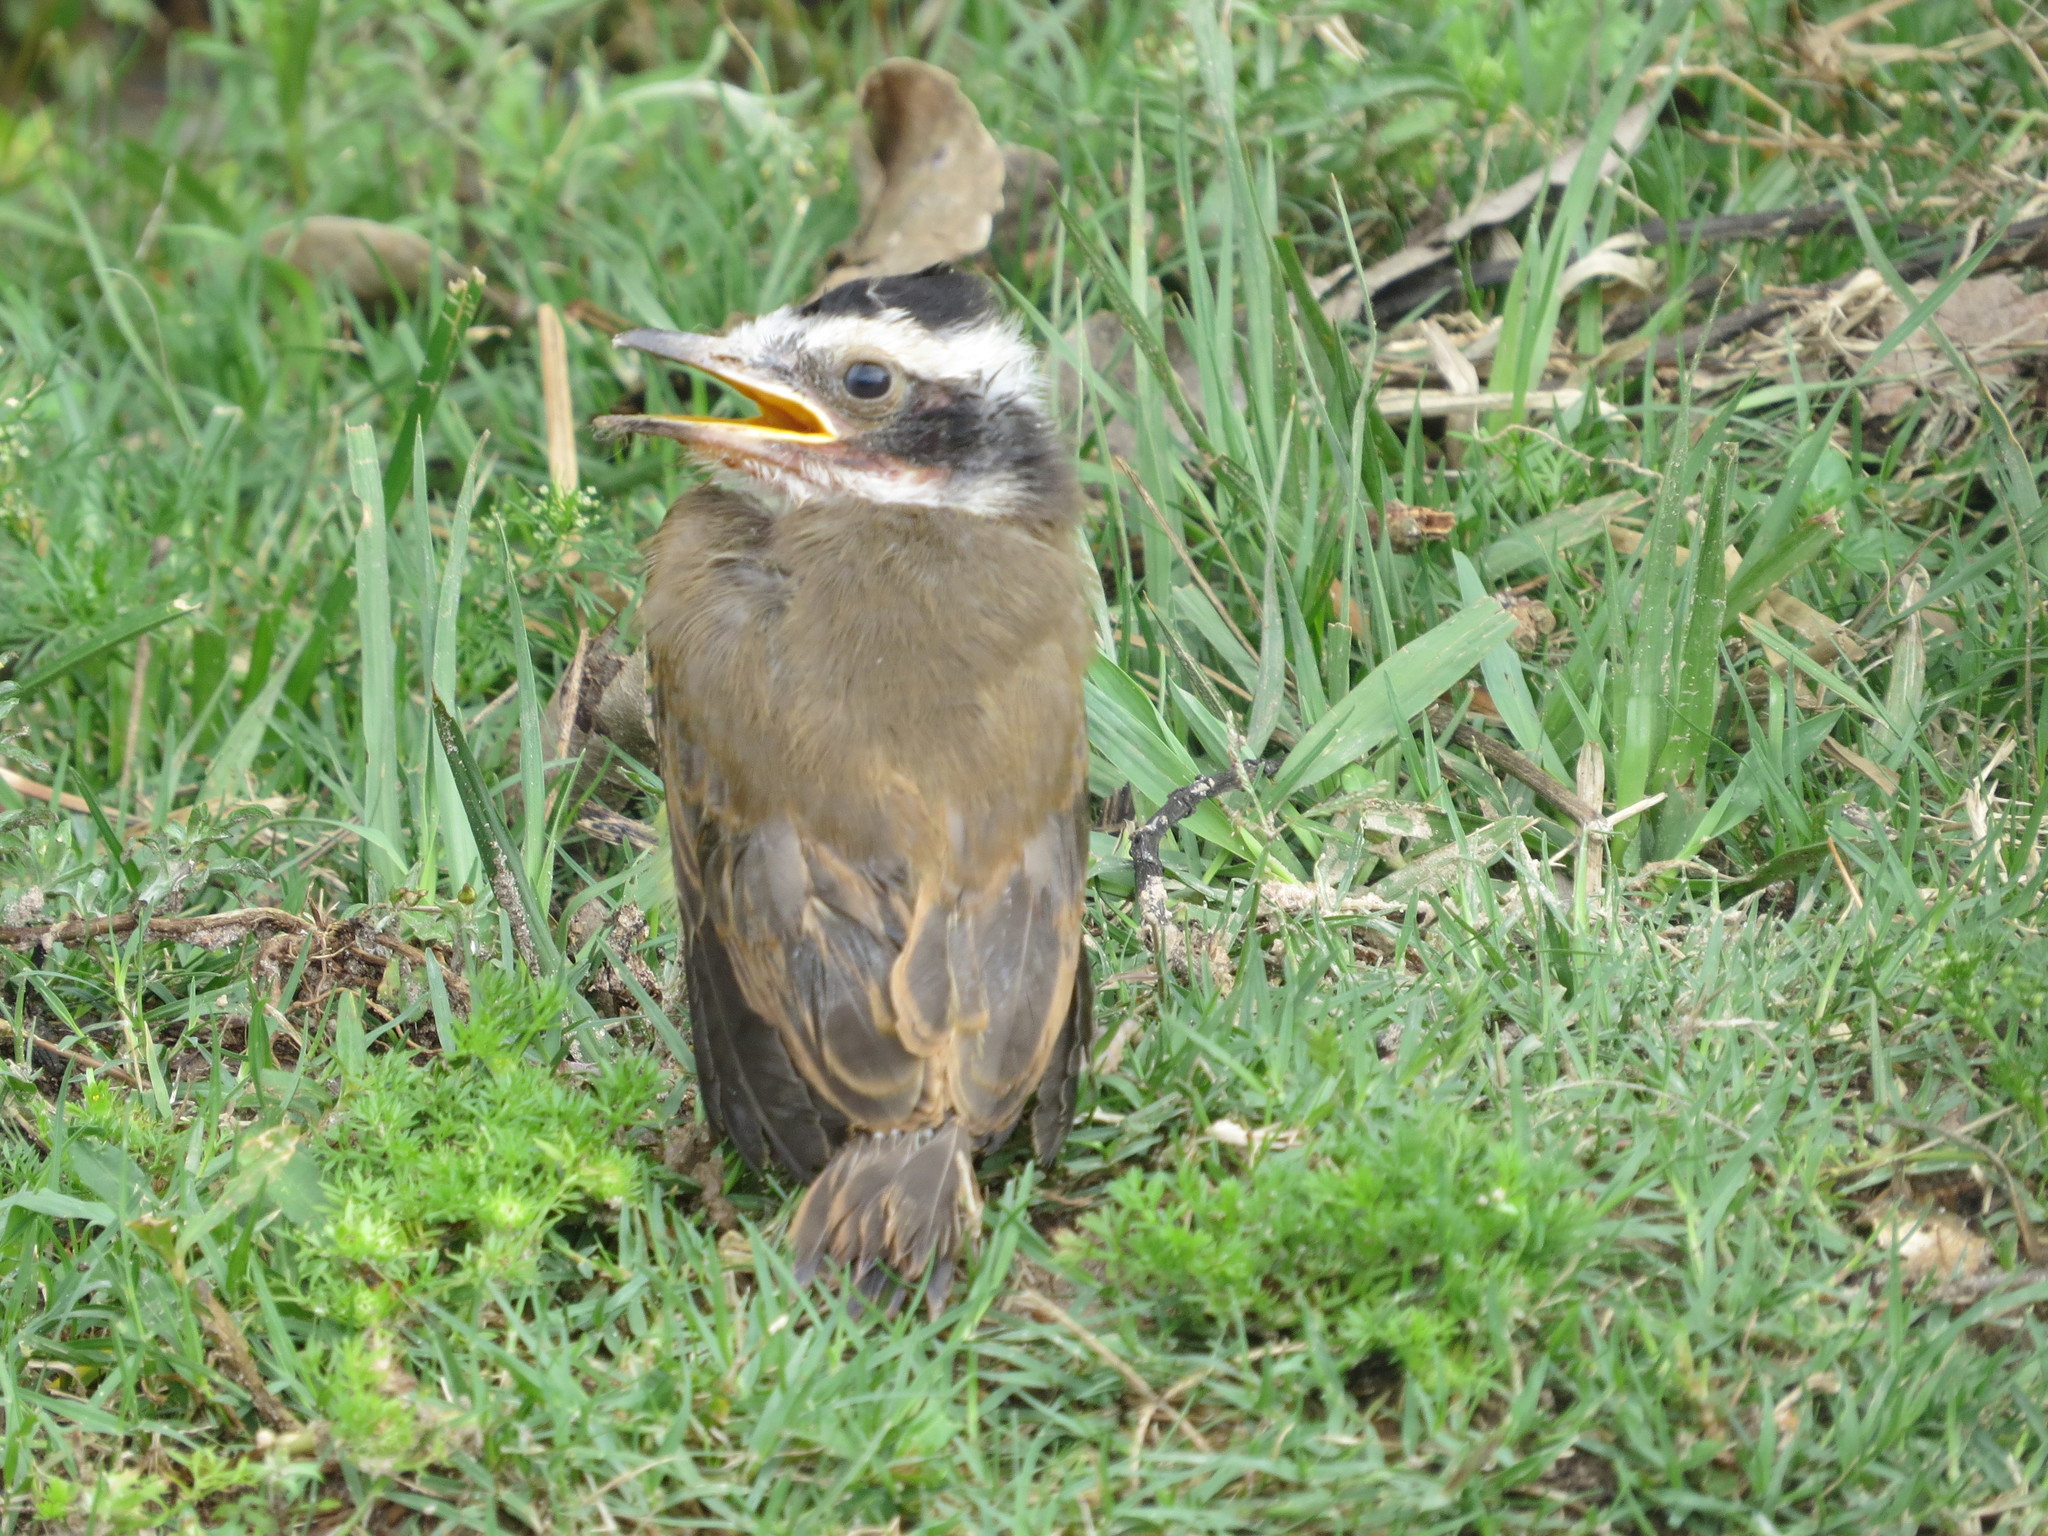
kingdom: Animalia
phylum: Chordata
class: Aves
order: Passeriformes
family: Tyrannidae
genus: Pitangus
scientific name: Pitangus sulphuratus
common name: Great kiskadee
